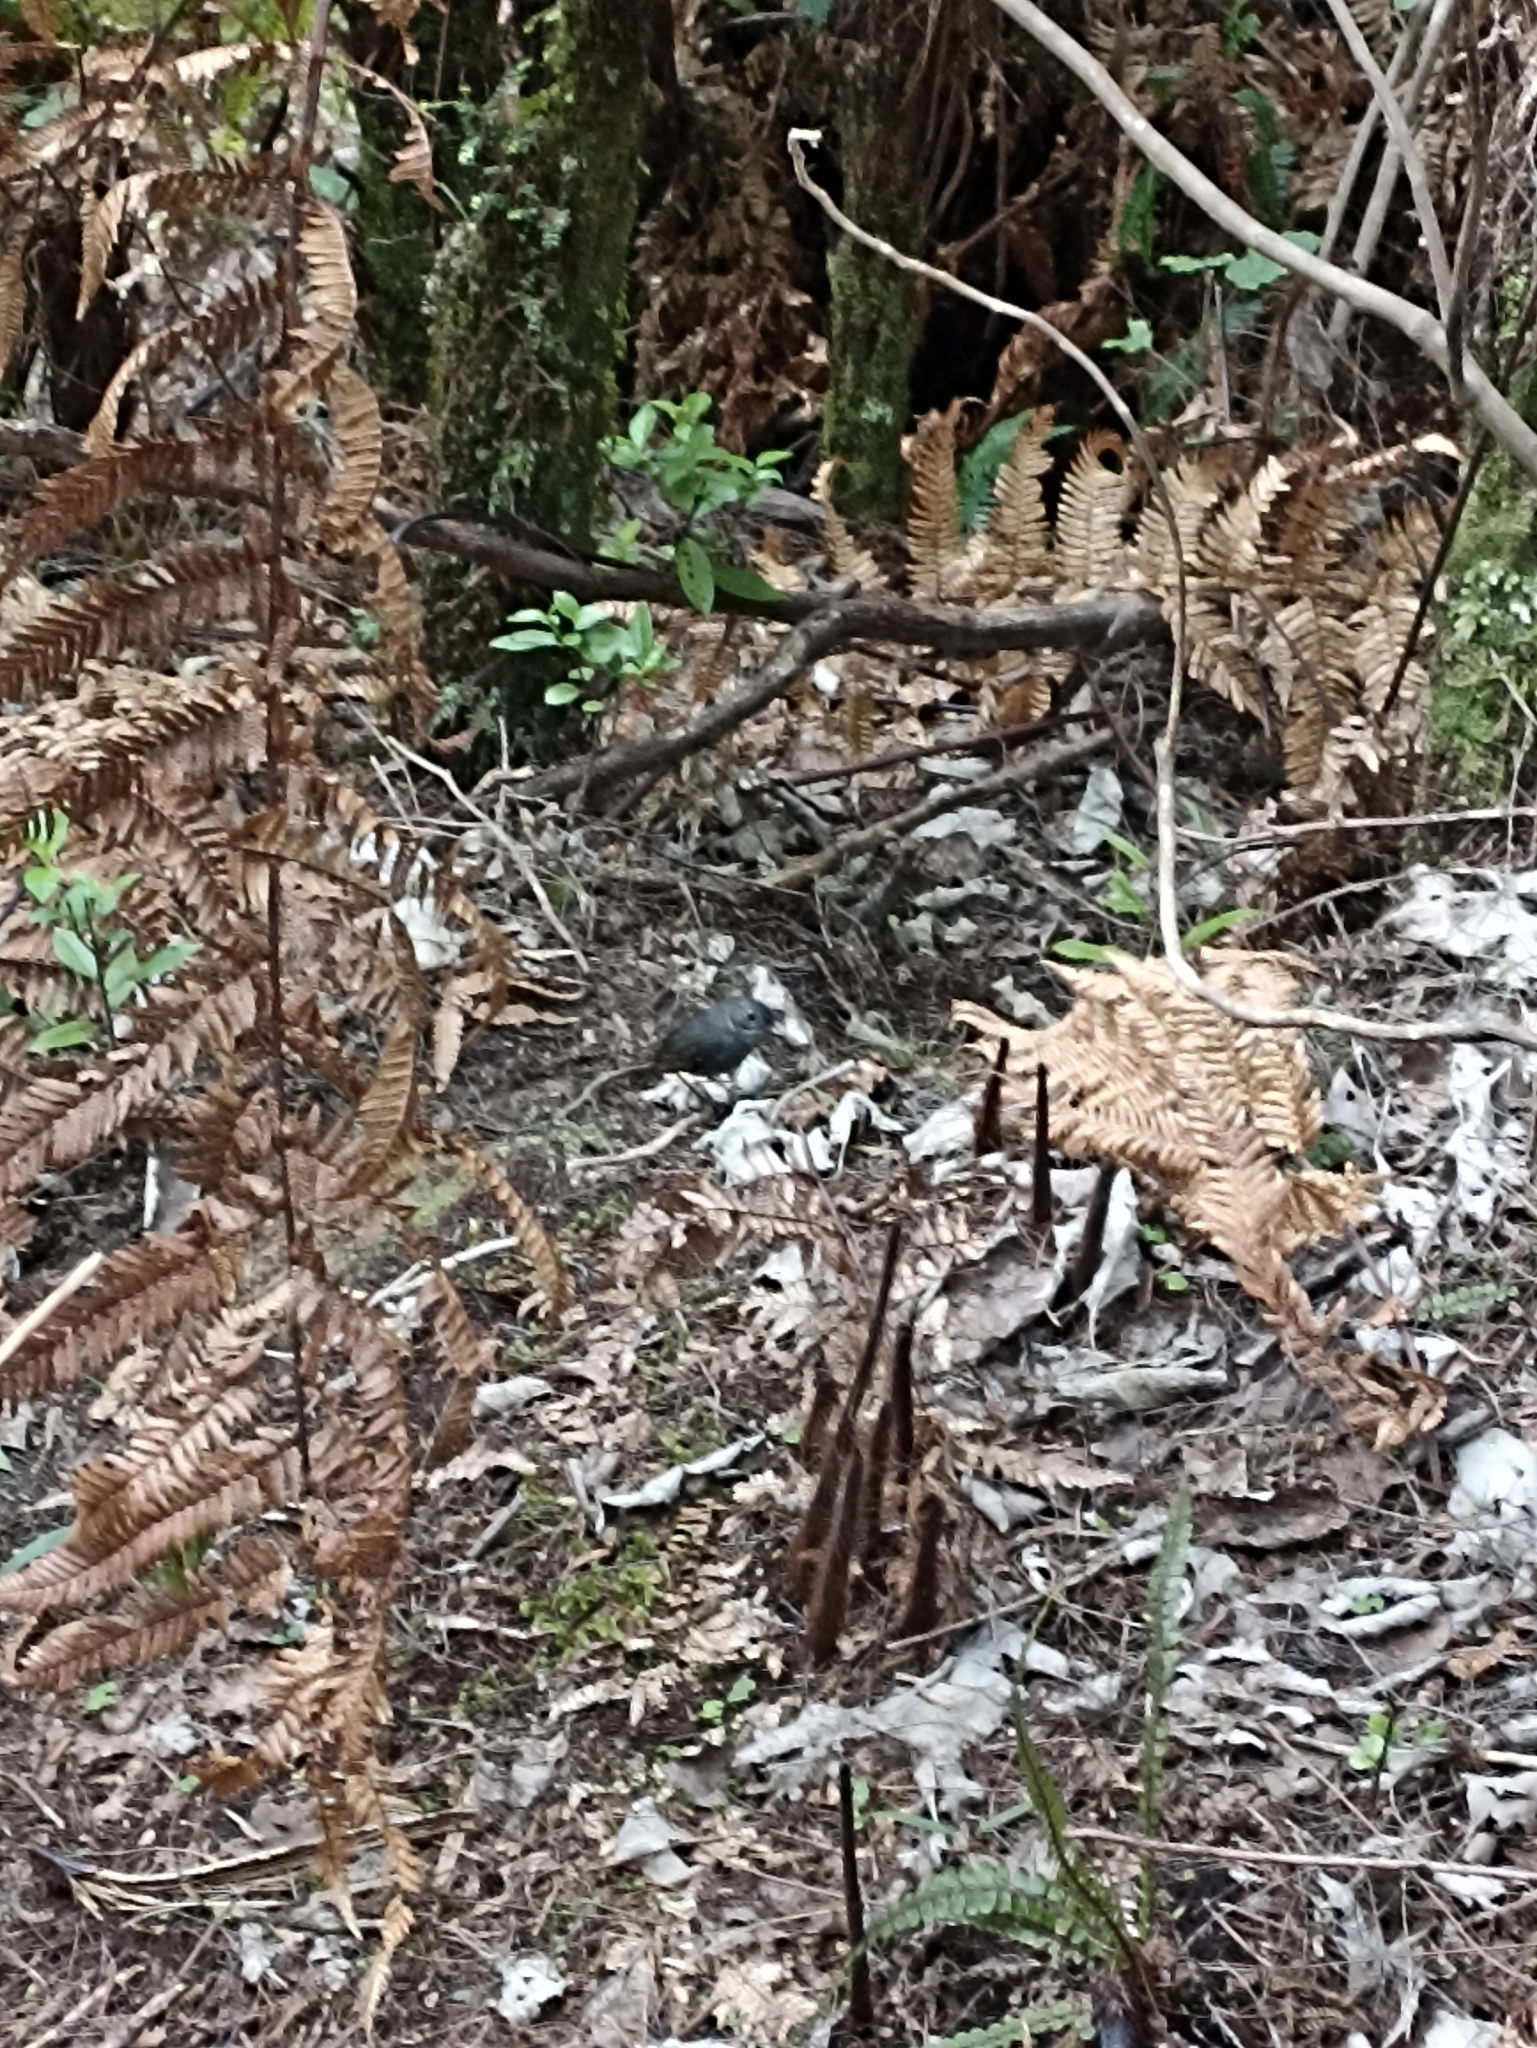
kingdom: Animalia
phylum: Chordata
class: Aves
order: Passeriformes
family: Petroicidae
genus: Petroica
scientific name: Petroica australis
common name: New zealand robin
